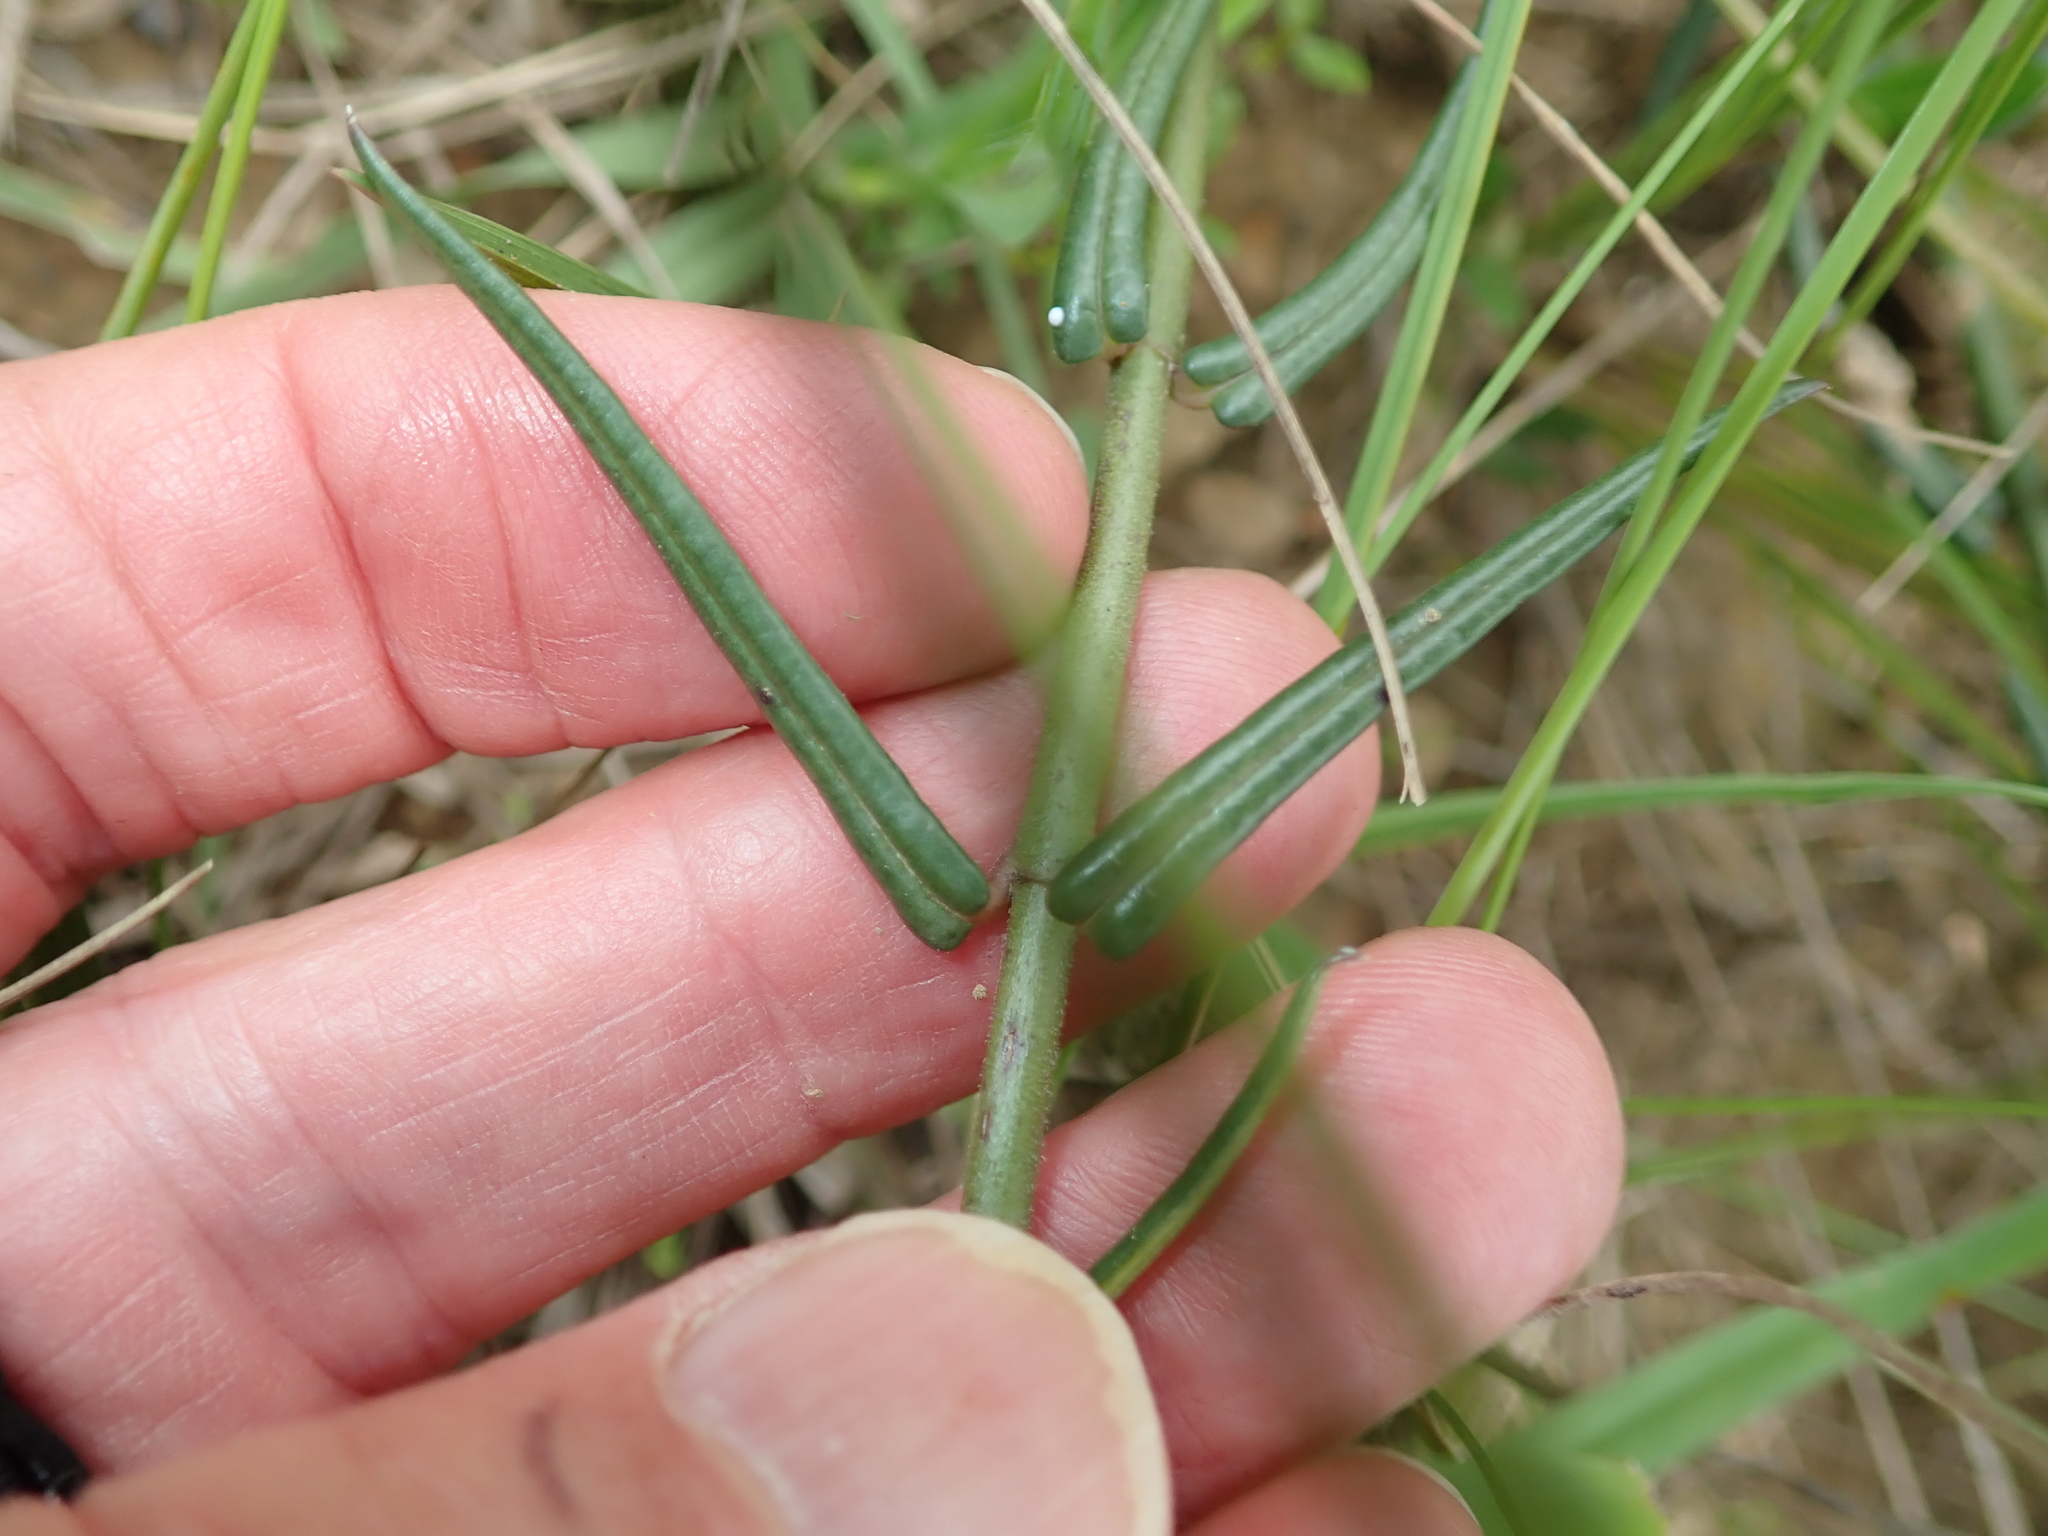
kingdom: Plantae
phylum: Tracheophyta
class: Magnoliopsida
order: Gentianales
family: Apocynaceae
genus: Asclepias
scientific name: Asclepias flexuosa
